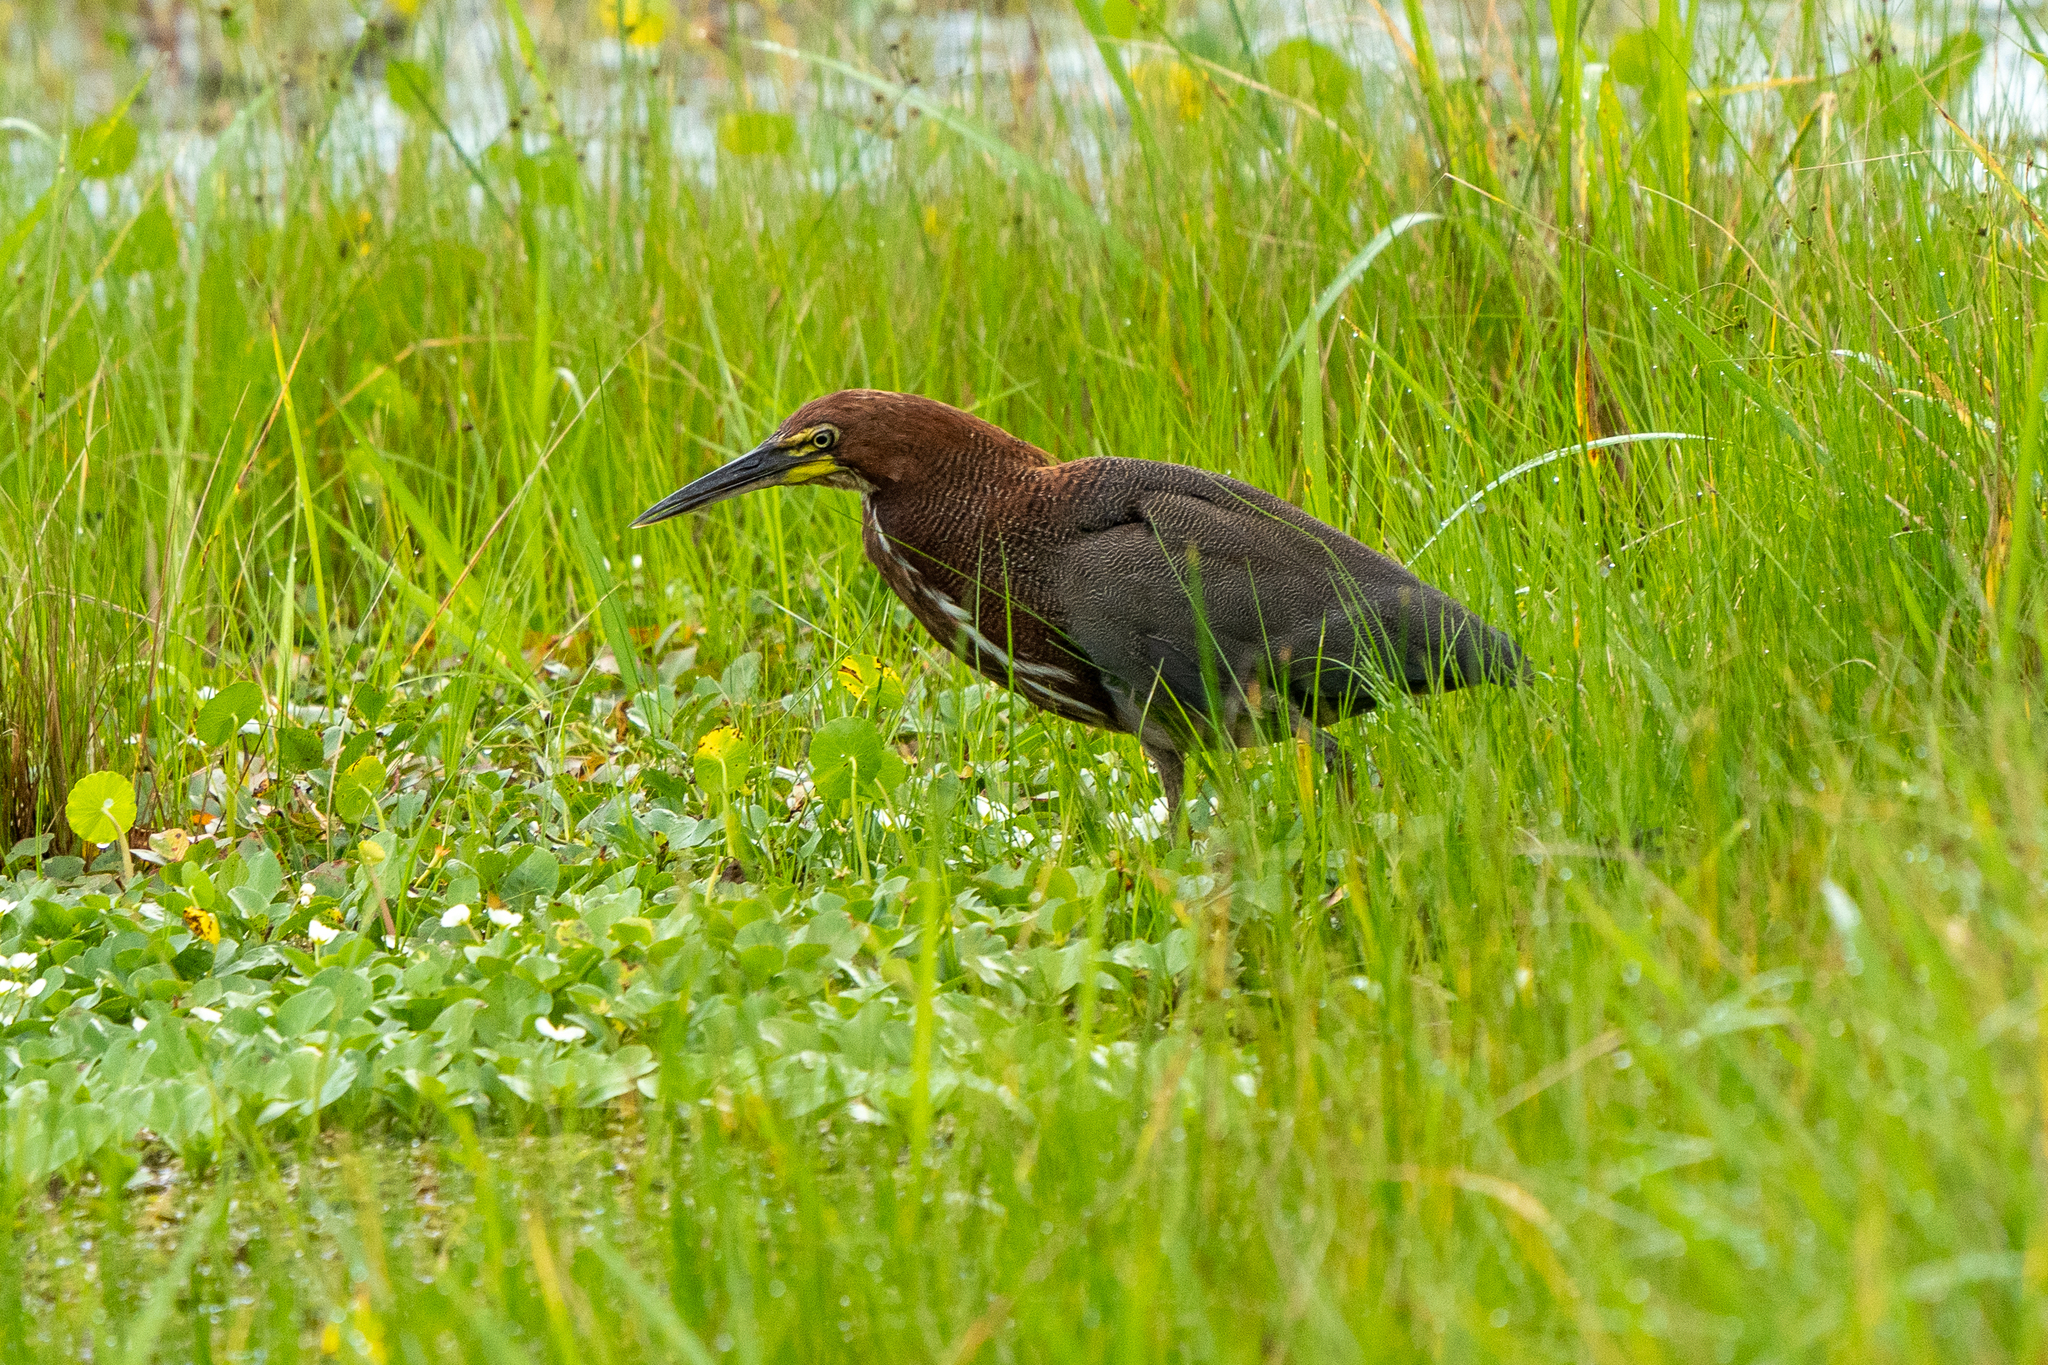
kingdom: Animalia
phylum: Chordata
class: Aves
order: Pelecaniformes
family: Ardeidae
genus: Tigrisoma
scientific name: Tigrisoma lineatum
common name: Rufescent tiger-heron
